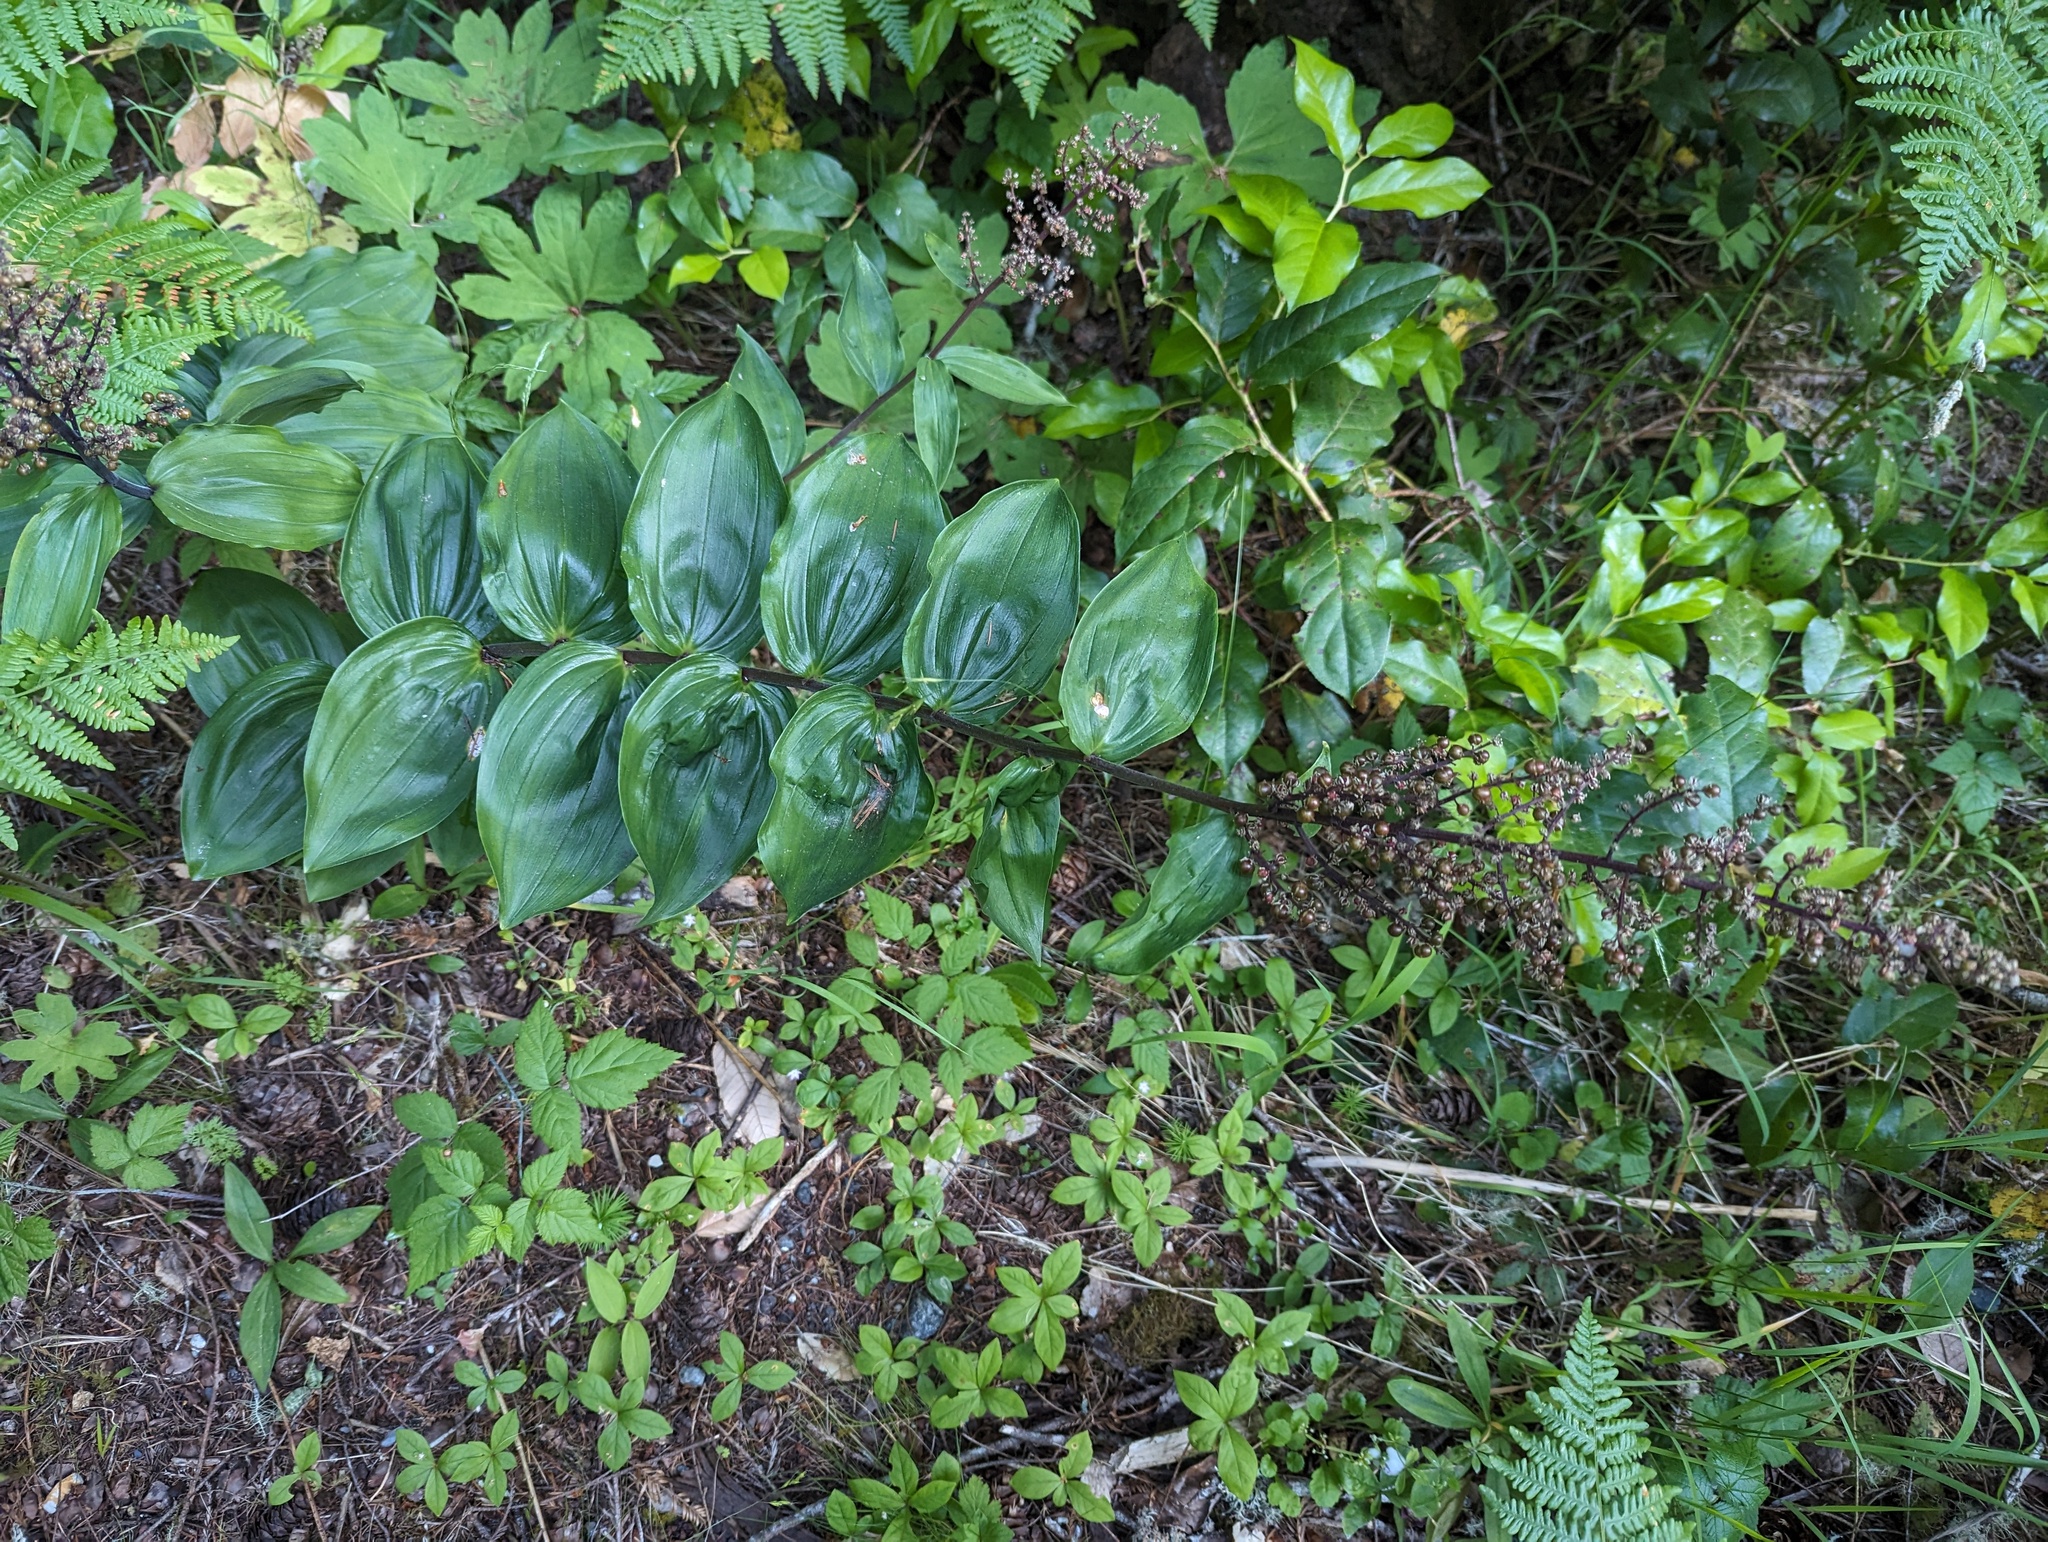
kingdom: Plantae
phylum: Tracheophyta
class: Liliopsida
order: Asparagales
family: Asparagaceae
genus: Maianthemum
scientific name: Maianthemum racemosum
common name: False spikenard
